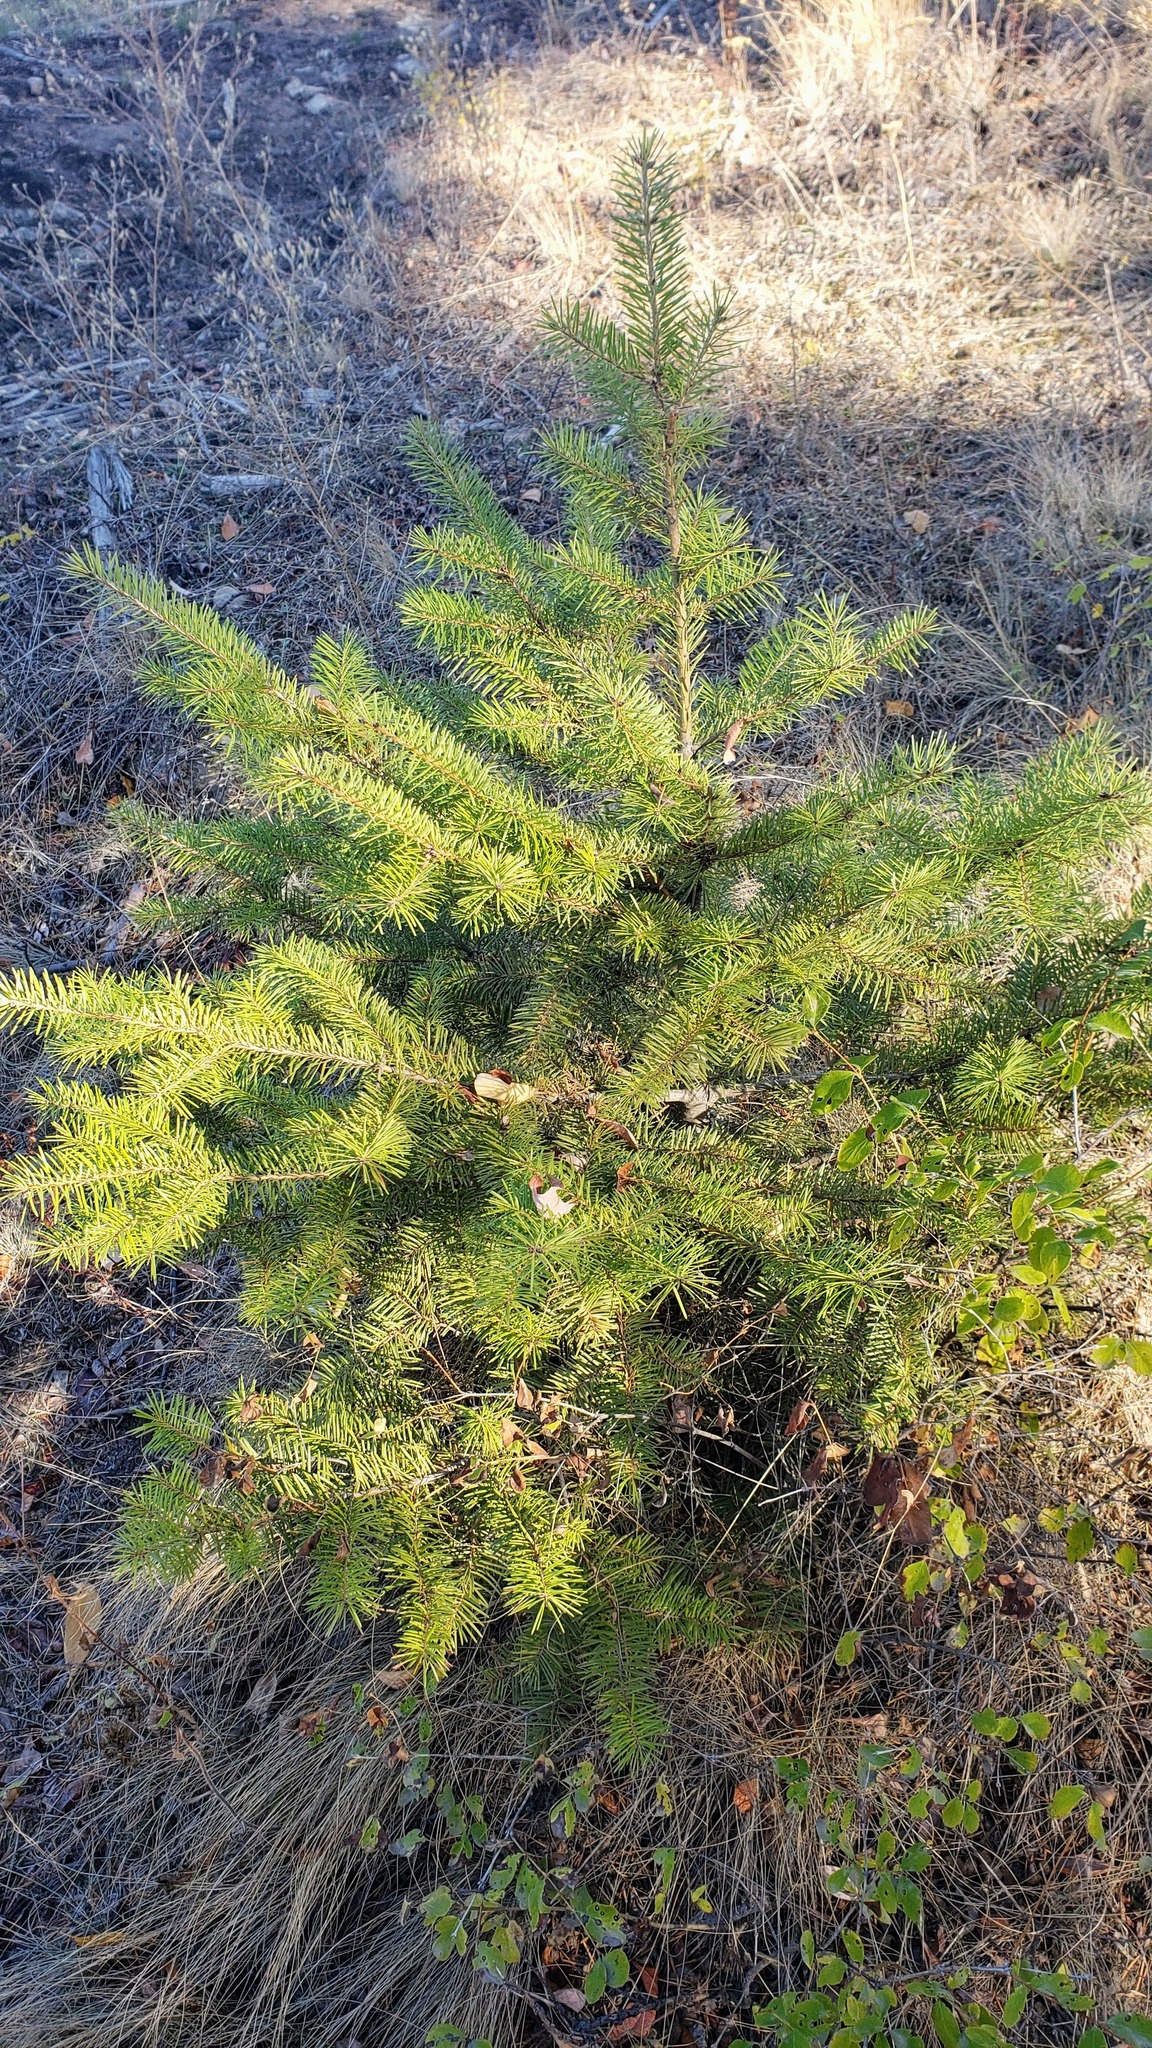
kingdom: Plantae
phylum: Tracheophyta
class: Pinopsida
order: Pinales
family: Pinaceae
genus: Pseudotsuga
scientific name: Pseudotsuga menziesii
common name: Douglas fir
